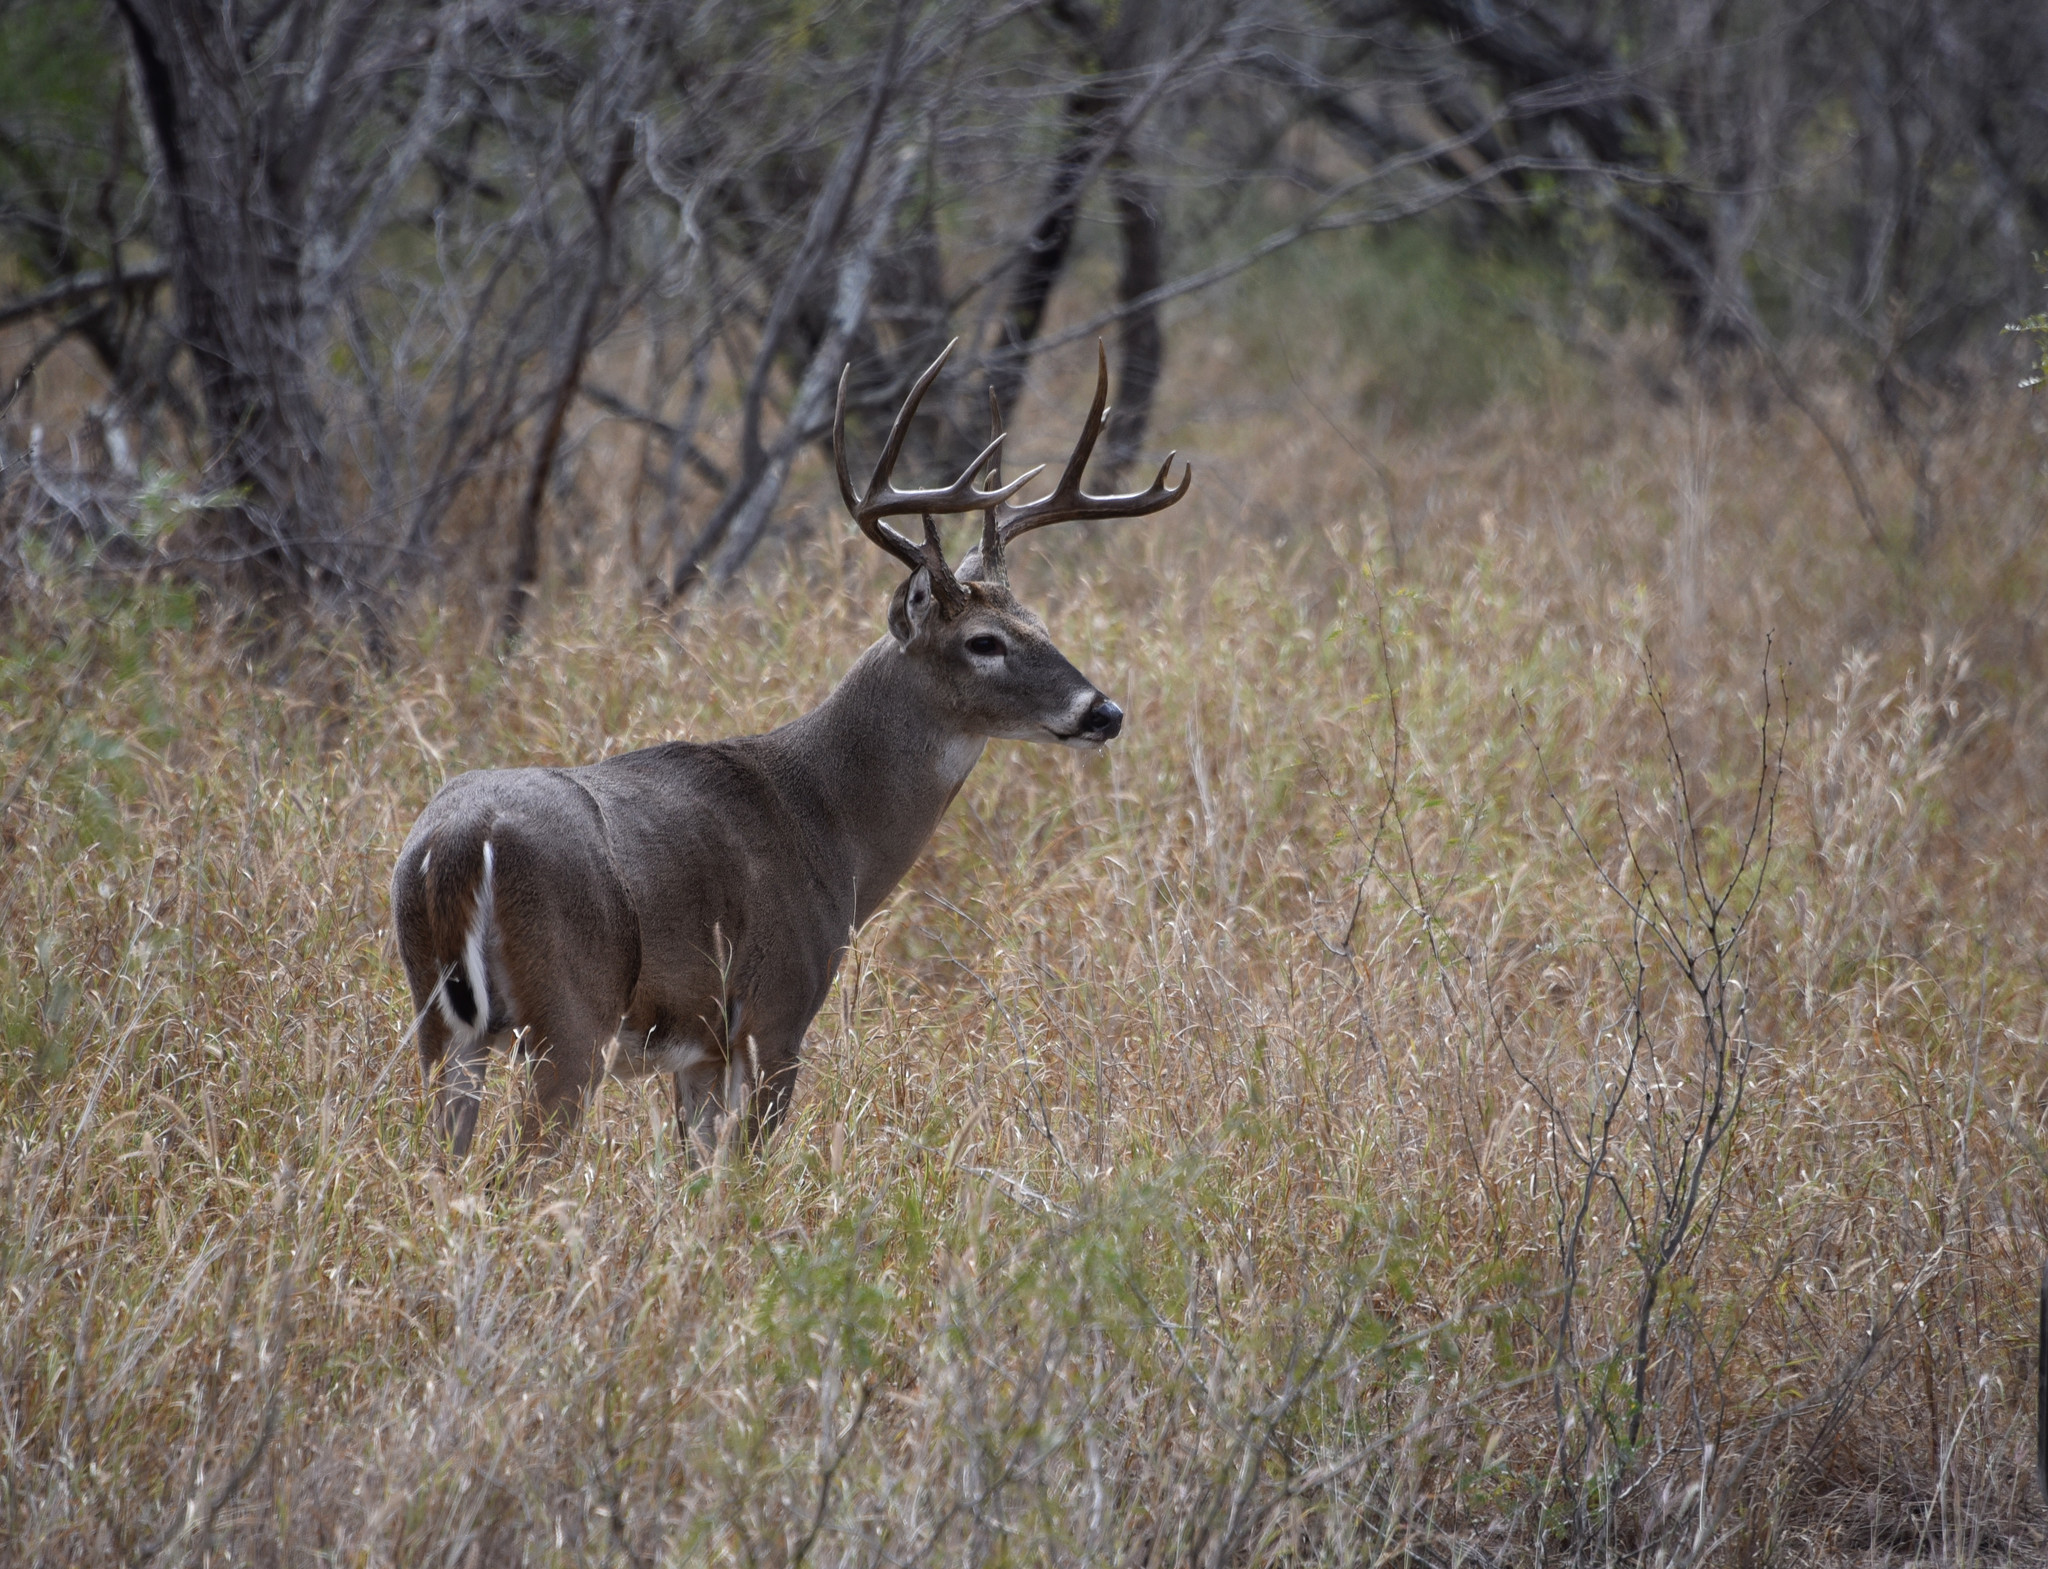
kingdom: Animalia
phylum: Chordata
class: Mammalia
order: Artiodactyla
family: Cervidae
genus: Odocoileus
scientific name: Odocoileus virginianus
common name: White-tailed deer
